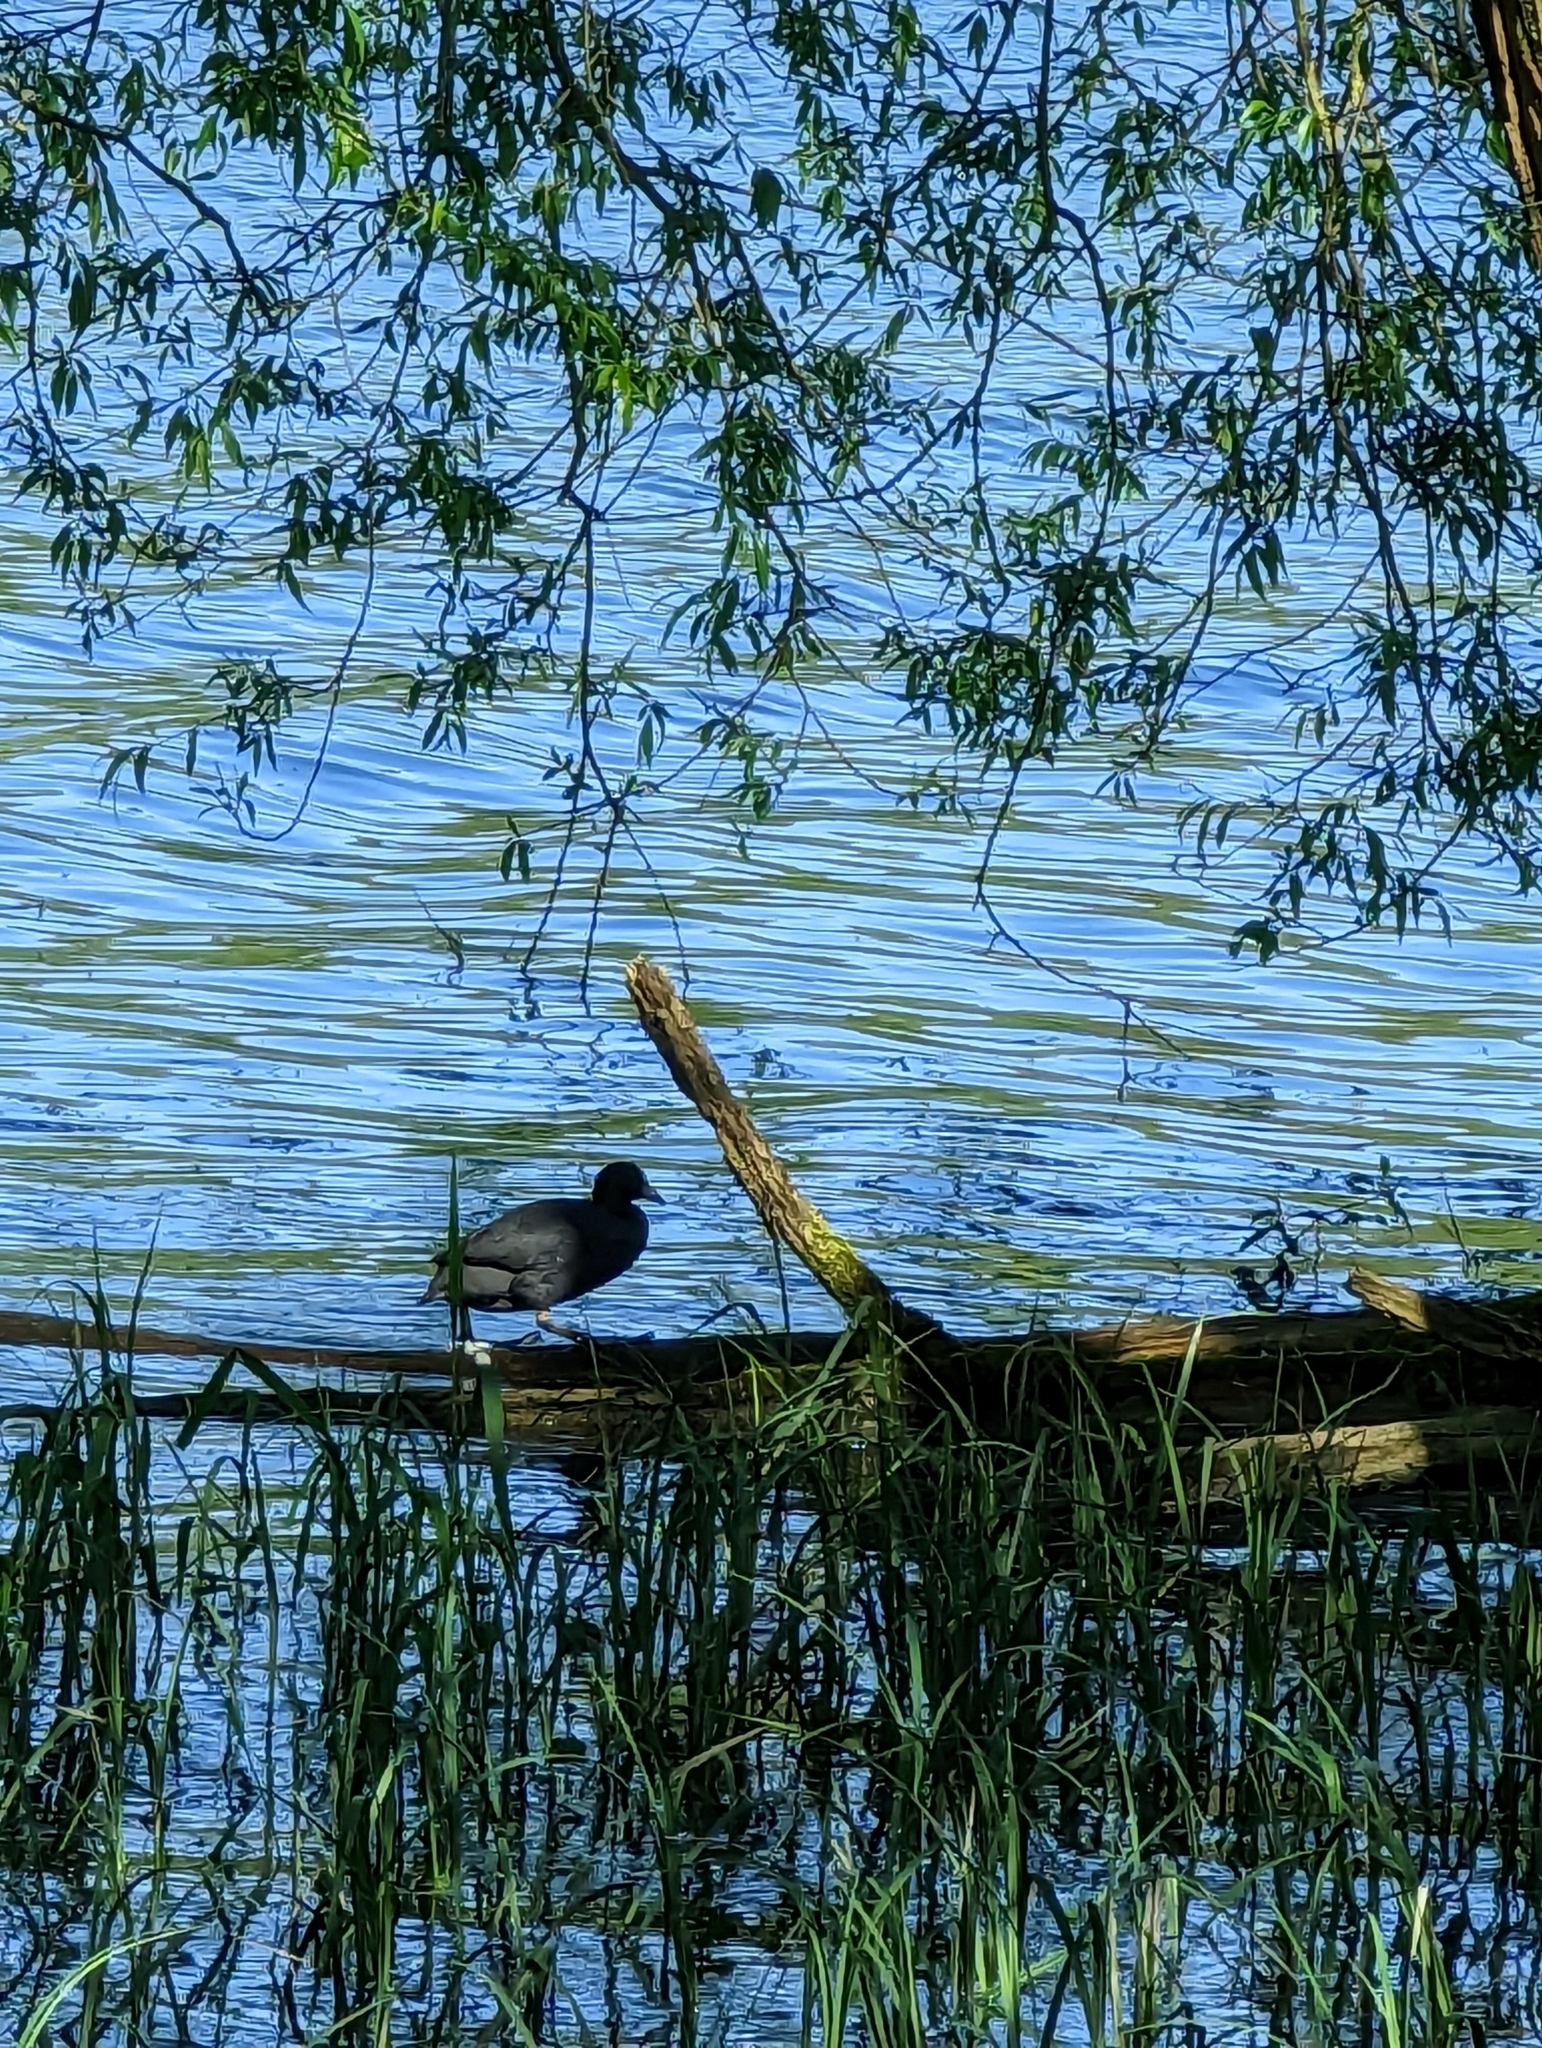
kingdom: Animalia
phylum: Chordata
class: Aves
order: Gruiformes
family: Rallidae
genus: Fulica
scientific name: Fulica atra
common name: Eurasian coot
